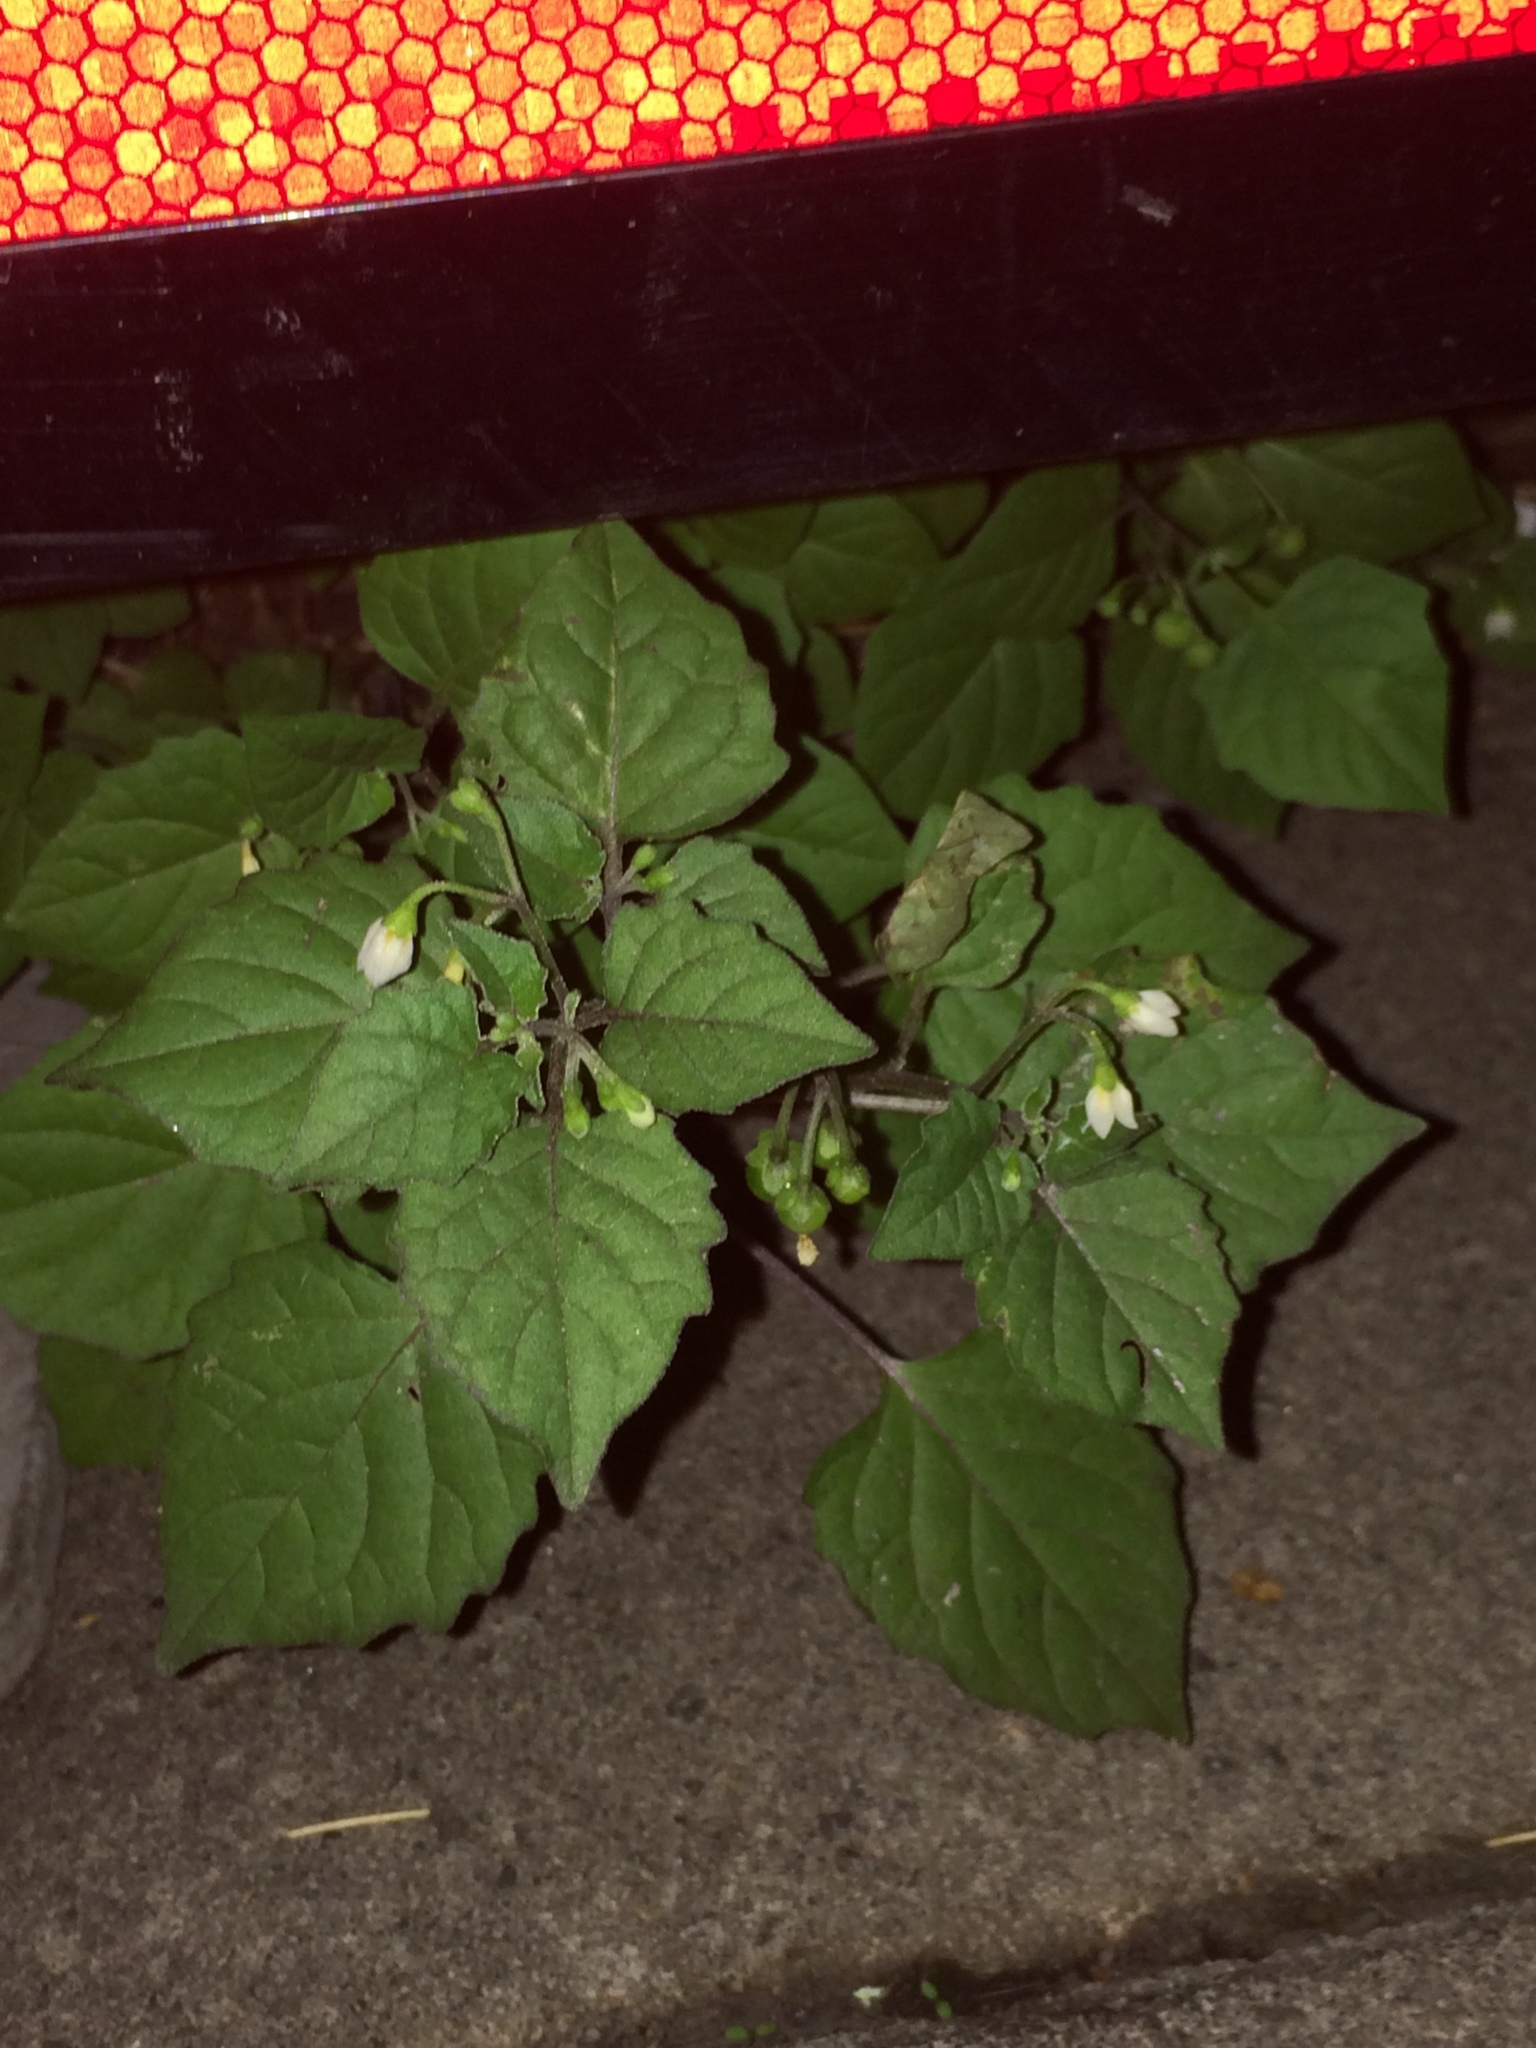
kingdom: Plantae
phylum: Tracheophyta
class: Magnoliopsida
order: Solanales
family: Solanaceae
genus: Solanum
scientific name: Solanum nigrum
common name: Black nightshade
